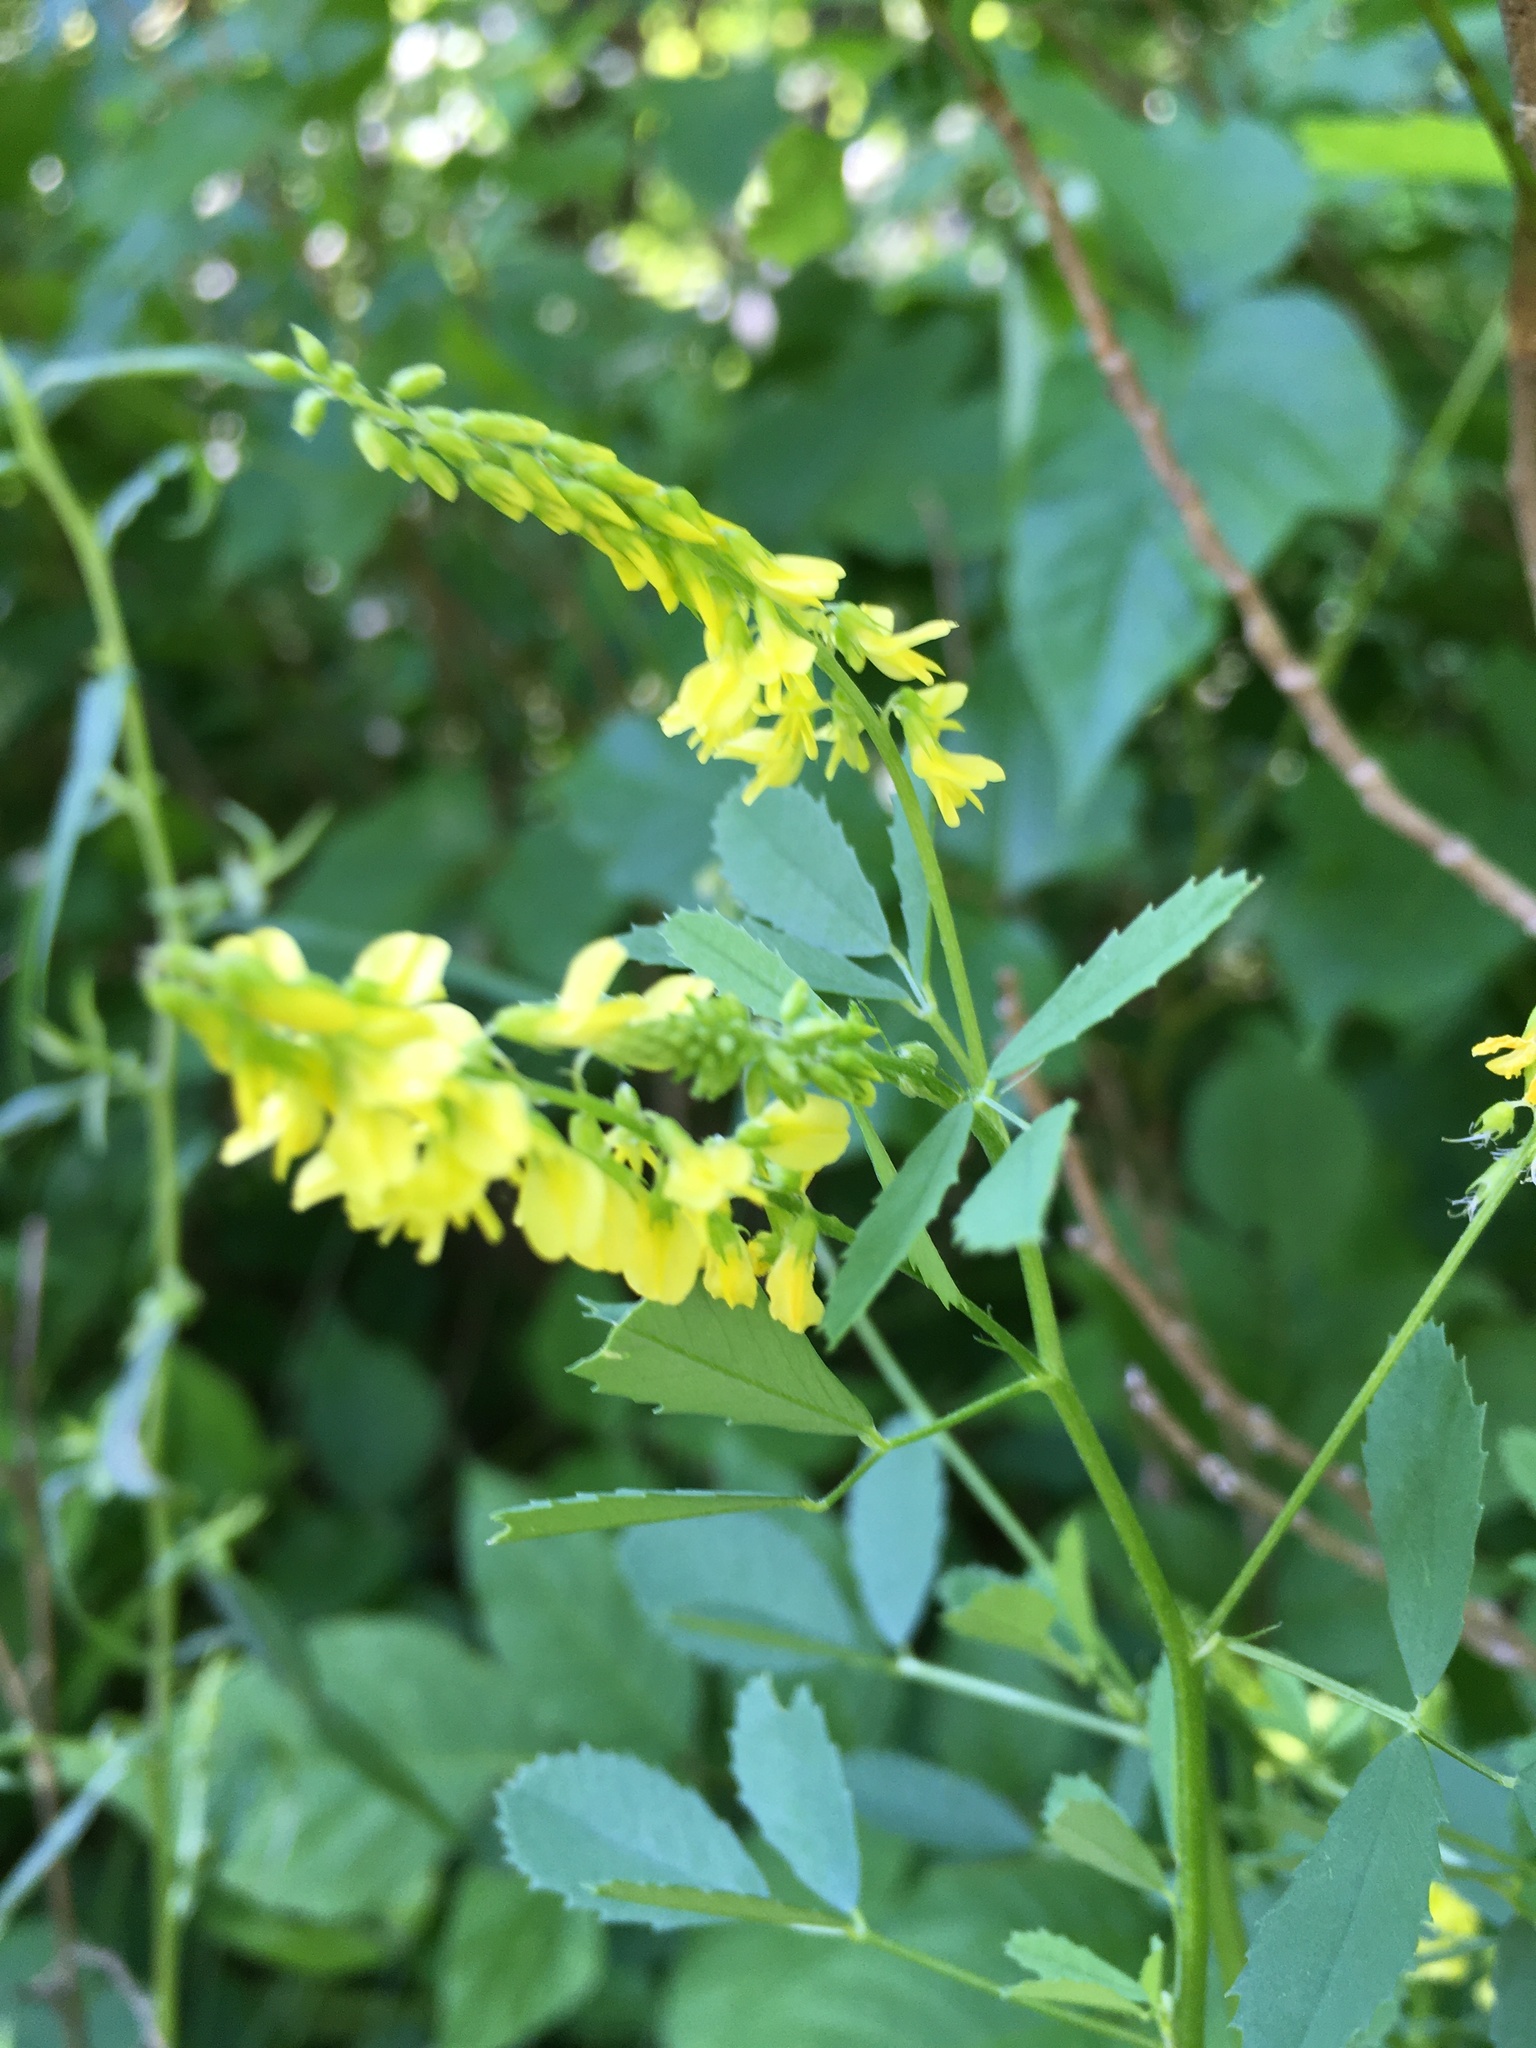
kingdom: Plantae
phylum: Tracheophyta
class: Magnoliopsida
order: Fabales
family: Fabaceae
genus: Melilotus
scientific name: Melilotus officinalis
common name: Sweetclover
